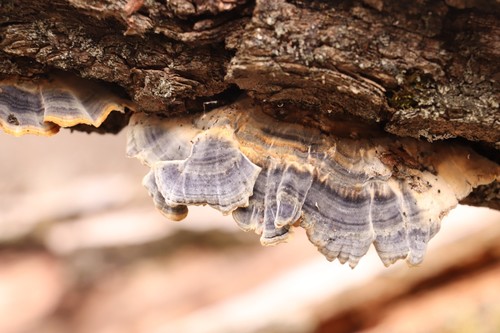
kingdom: Fungi
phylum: Basidiomycota
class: Agaricomycetes
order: Polyporales
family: Polyporaceae
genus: Trametes
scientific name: Trametes versicolor
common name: Turkeytail
